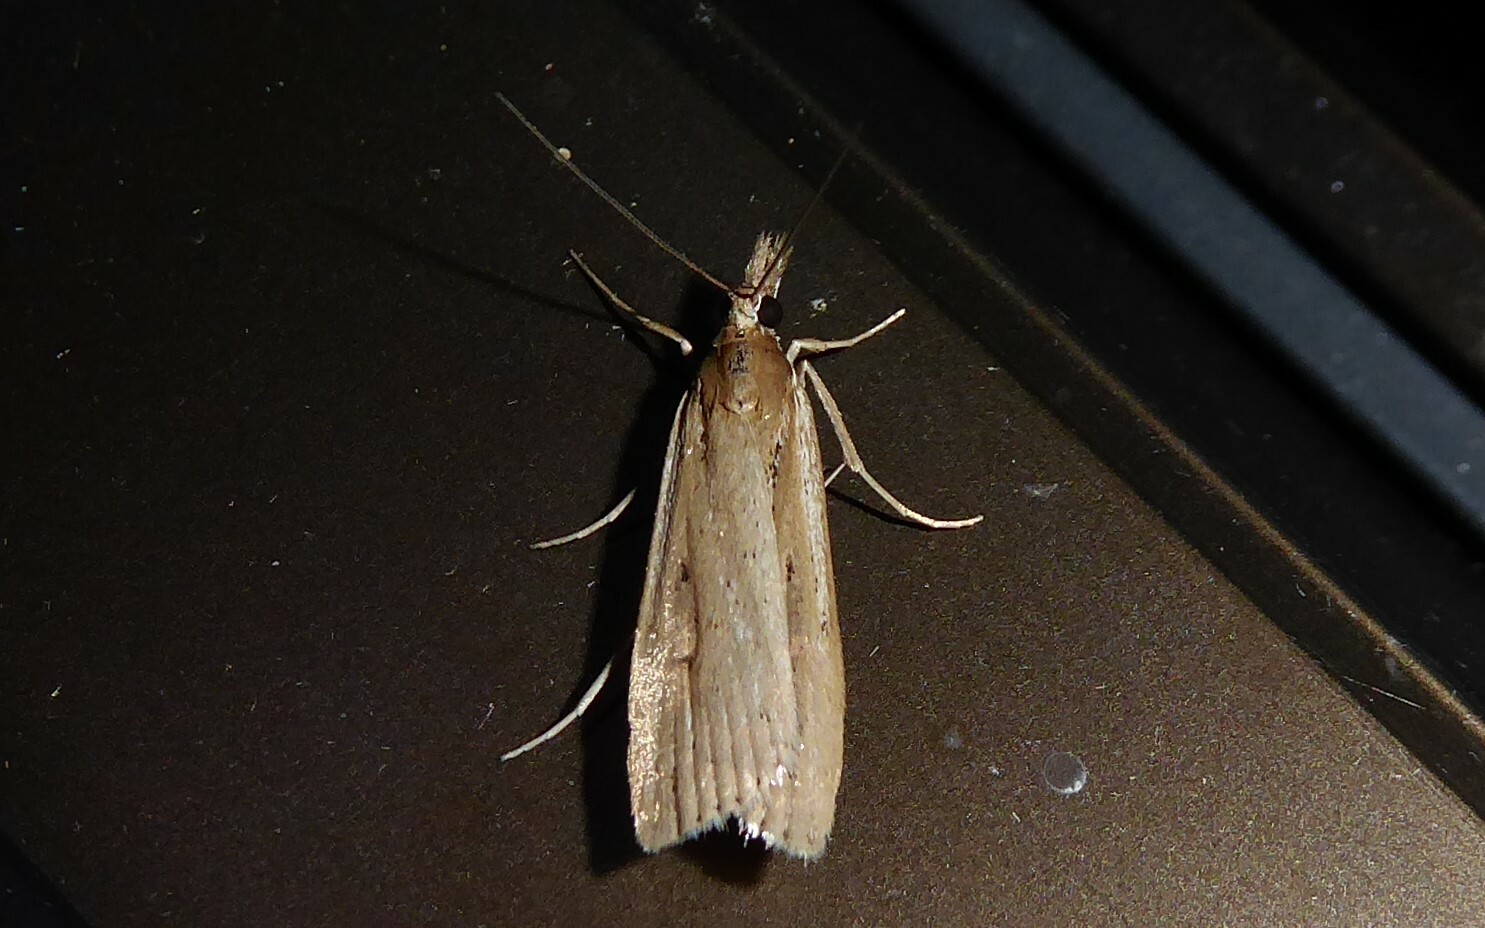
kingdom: Animalia
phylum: Arthropoda
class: Insecta
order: Lepidoptera
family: Crambidae
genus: Eudonia
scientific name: Eudonia sabulosella
